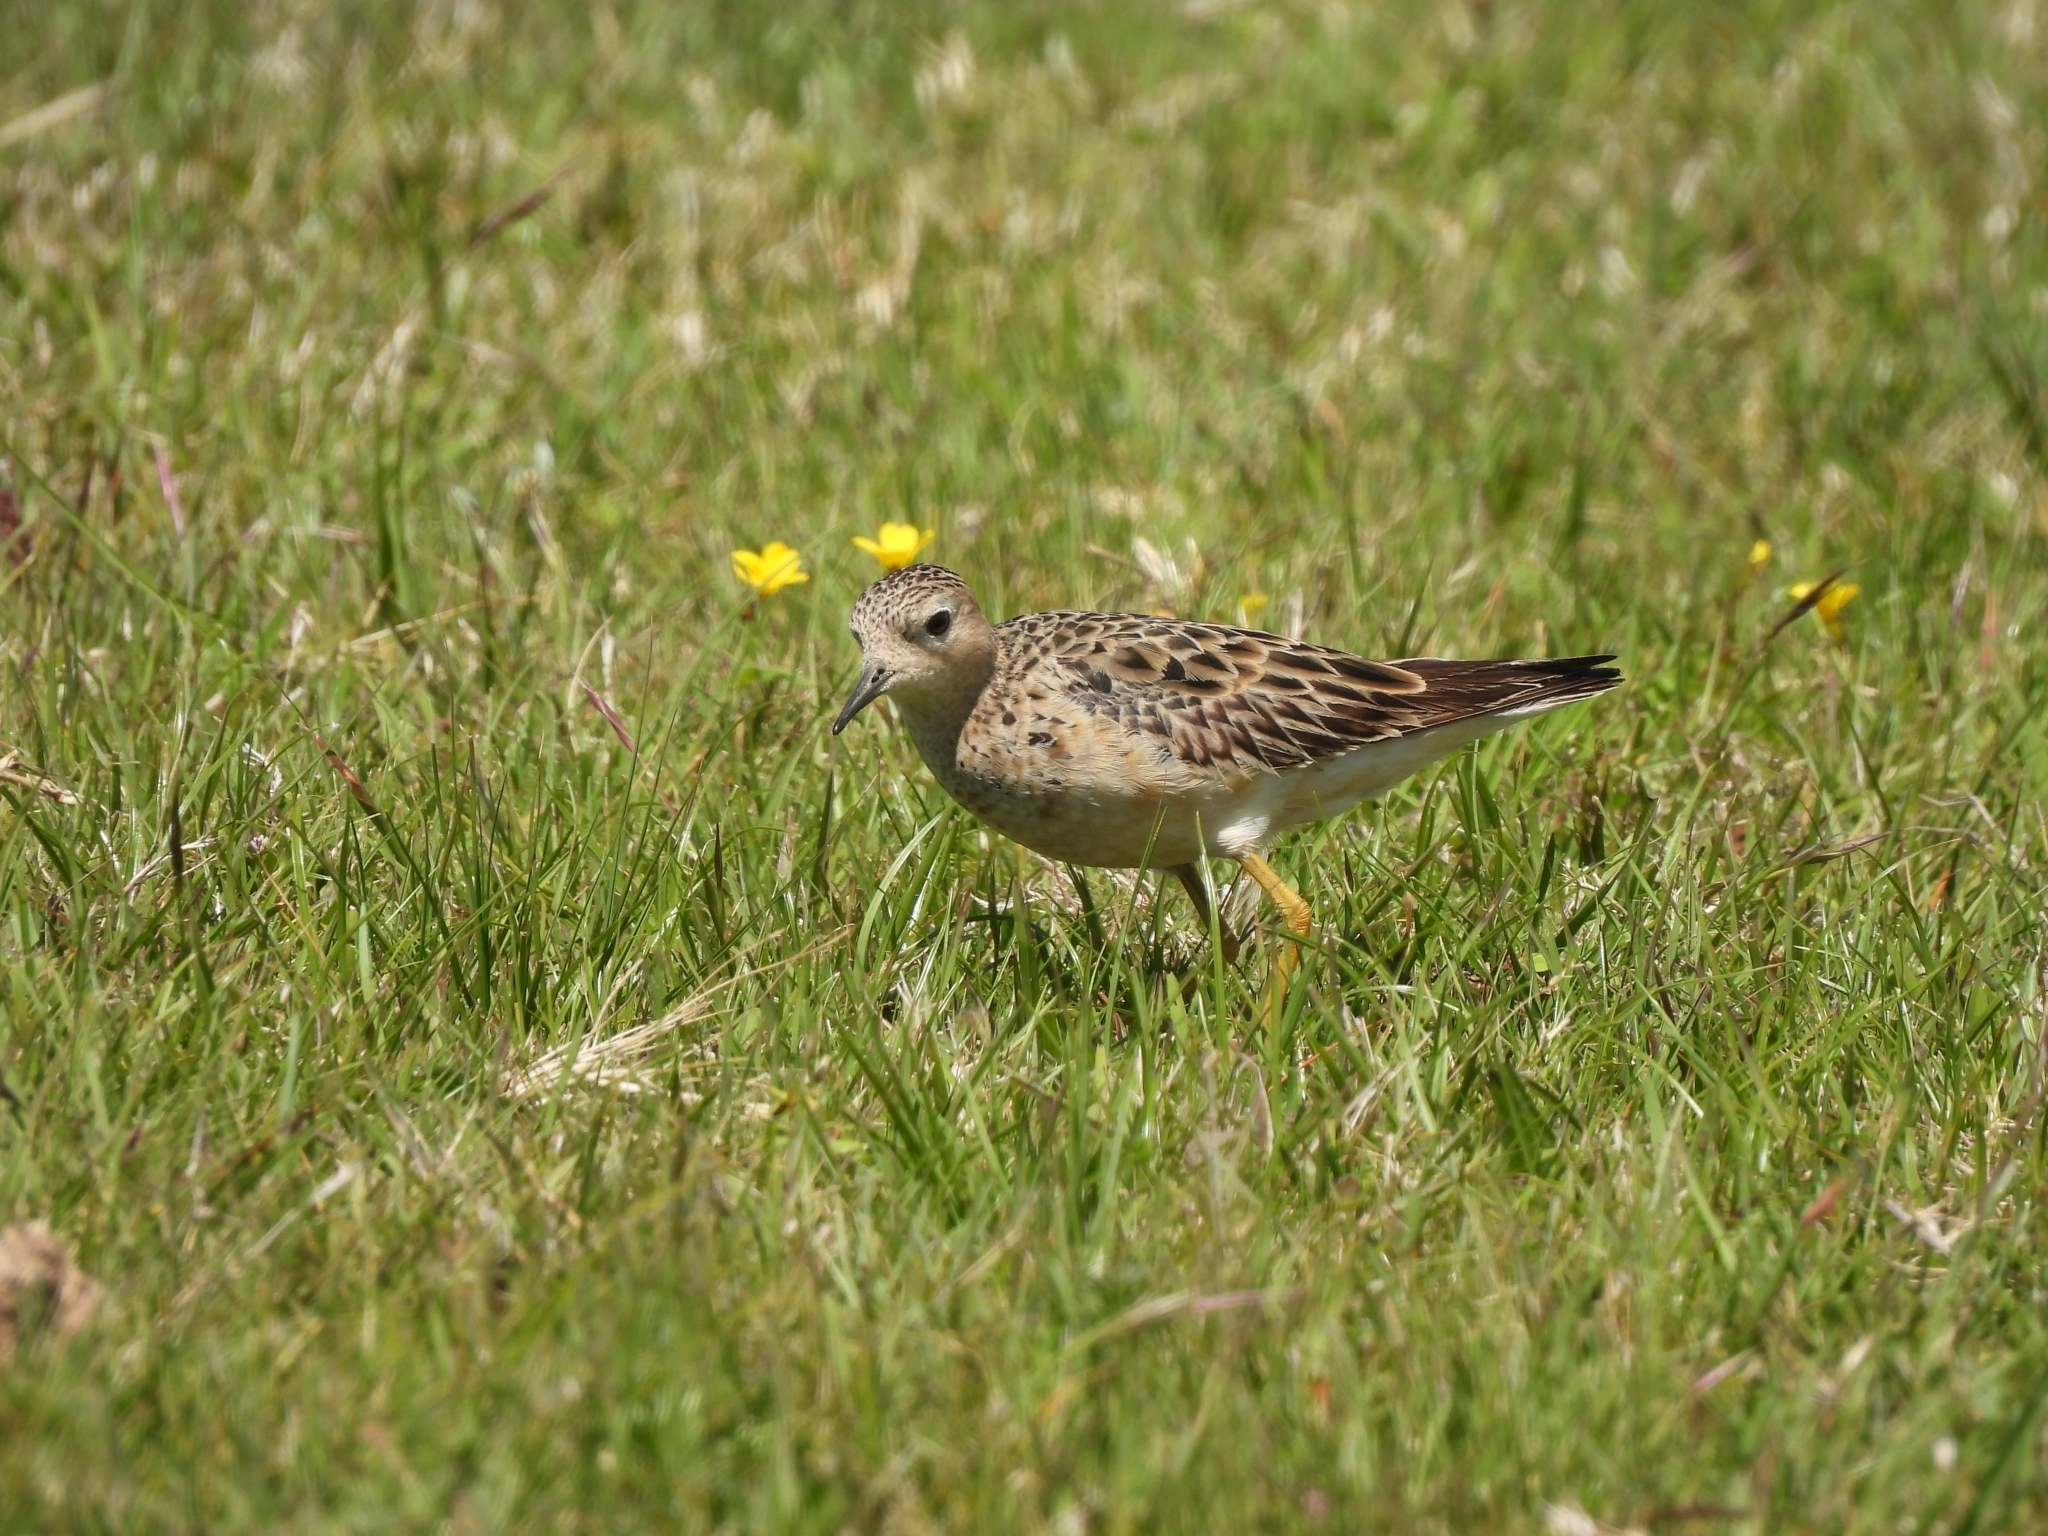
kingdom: Animalia
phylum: Chordata
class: Aves
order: Charadriiformes
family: Scolopacidae
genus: Calidris
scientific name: Calidris subruficollis
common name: Buff-breasted sandpiper
